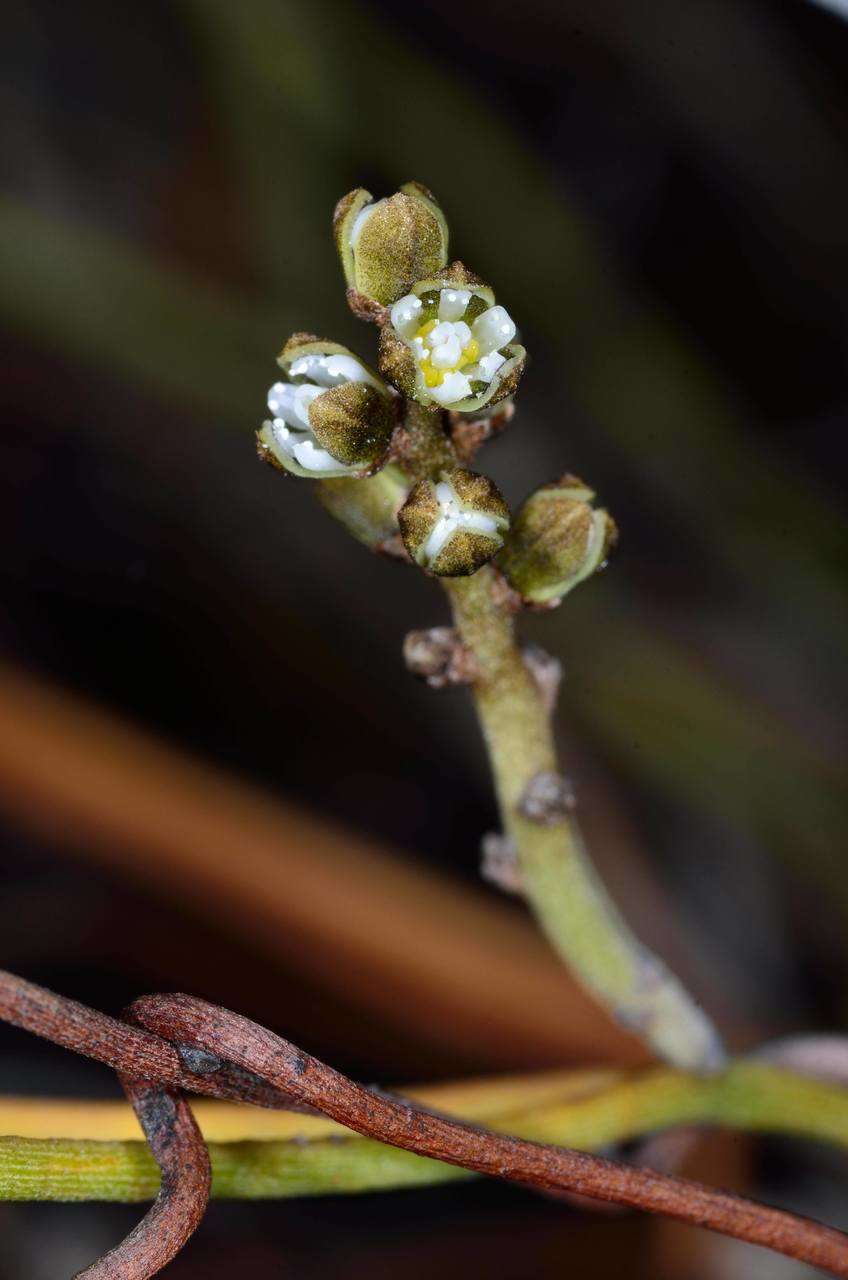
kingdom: Plantae
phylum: Tracheophyta
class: Magnoliopsida
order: Laurales
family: Lauraceae
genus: Cassytha
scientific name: Cassytha melantha
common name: Mallee stranglevine
